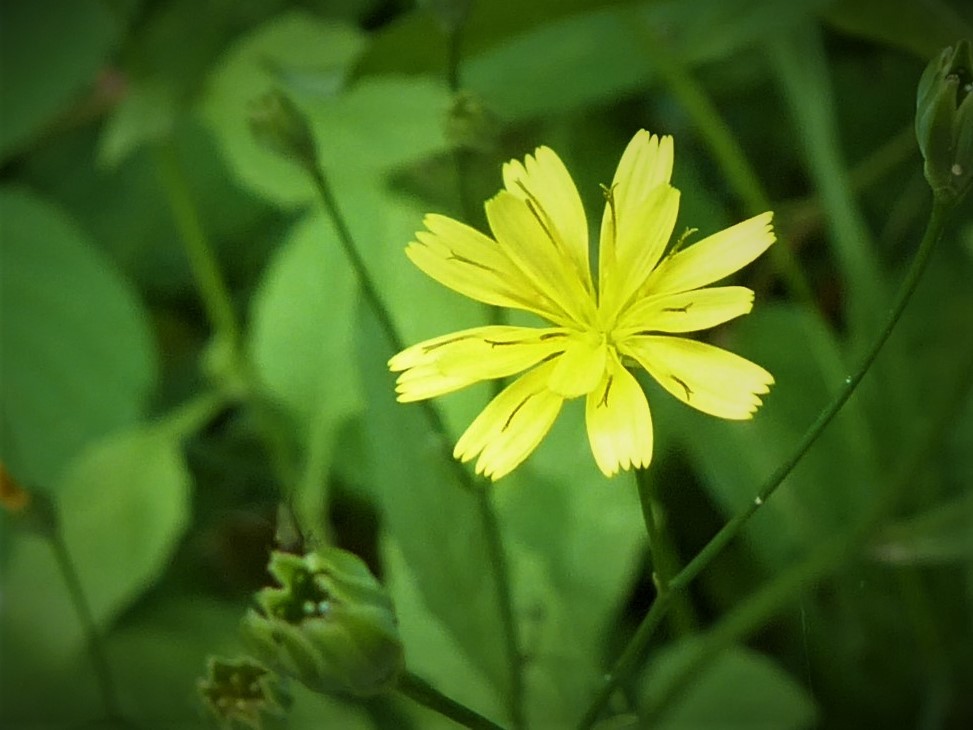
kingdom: Plantae
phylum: Tracheophyta
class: Magnoliopsida
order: Asterales
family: Asteraceae
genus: Lapsana
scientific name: Lapsana communis
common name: Nipplewort
